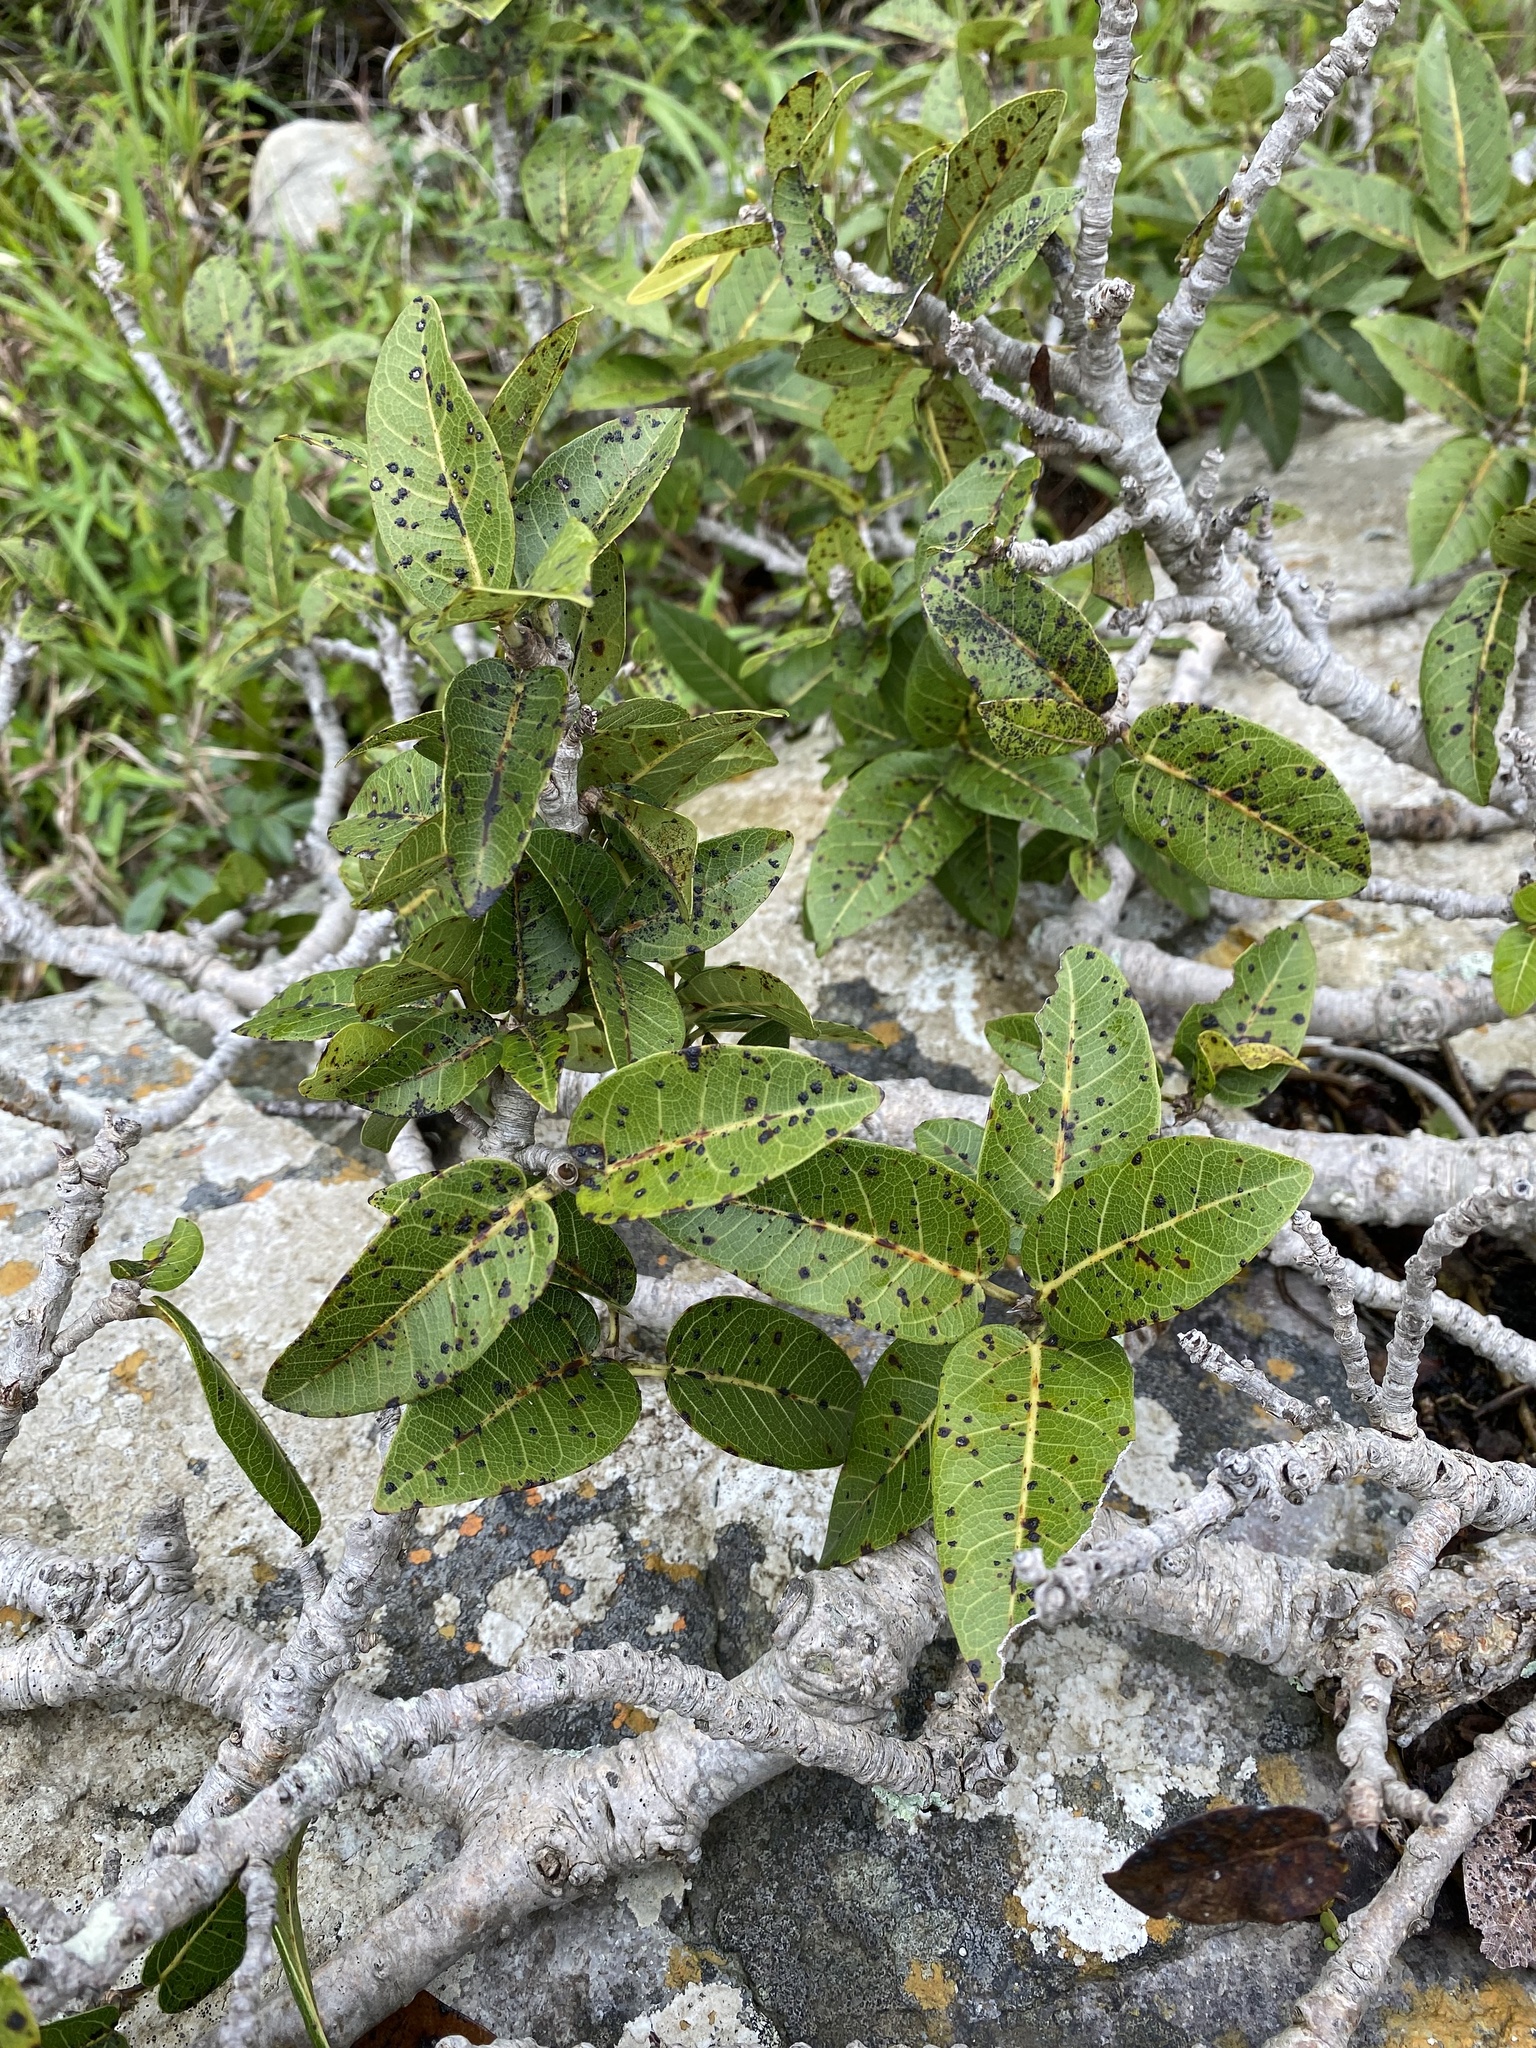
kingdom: Plantae
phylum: Tracheophyta
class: Magnoliopsida
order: Rosales
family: Moraceae
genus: Ficus
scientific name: Ficus ingens
